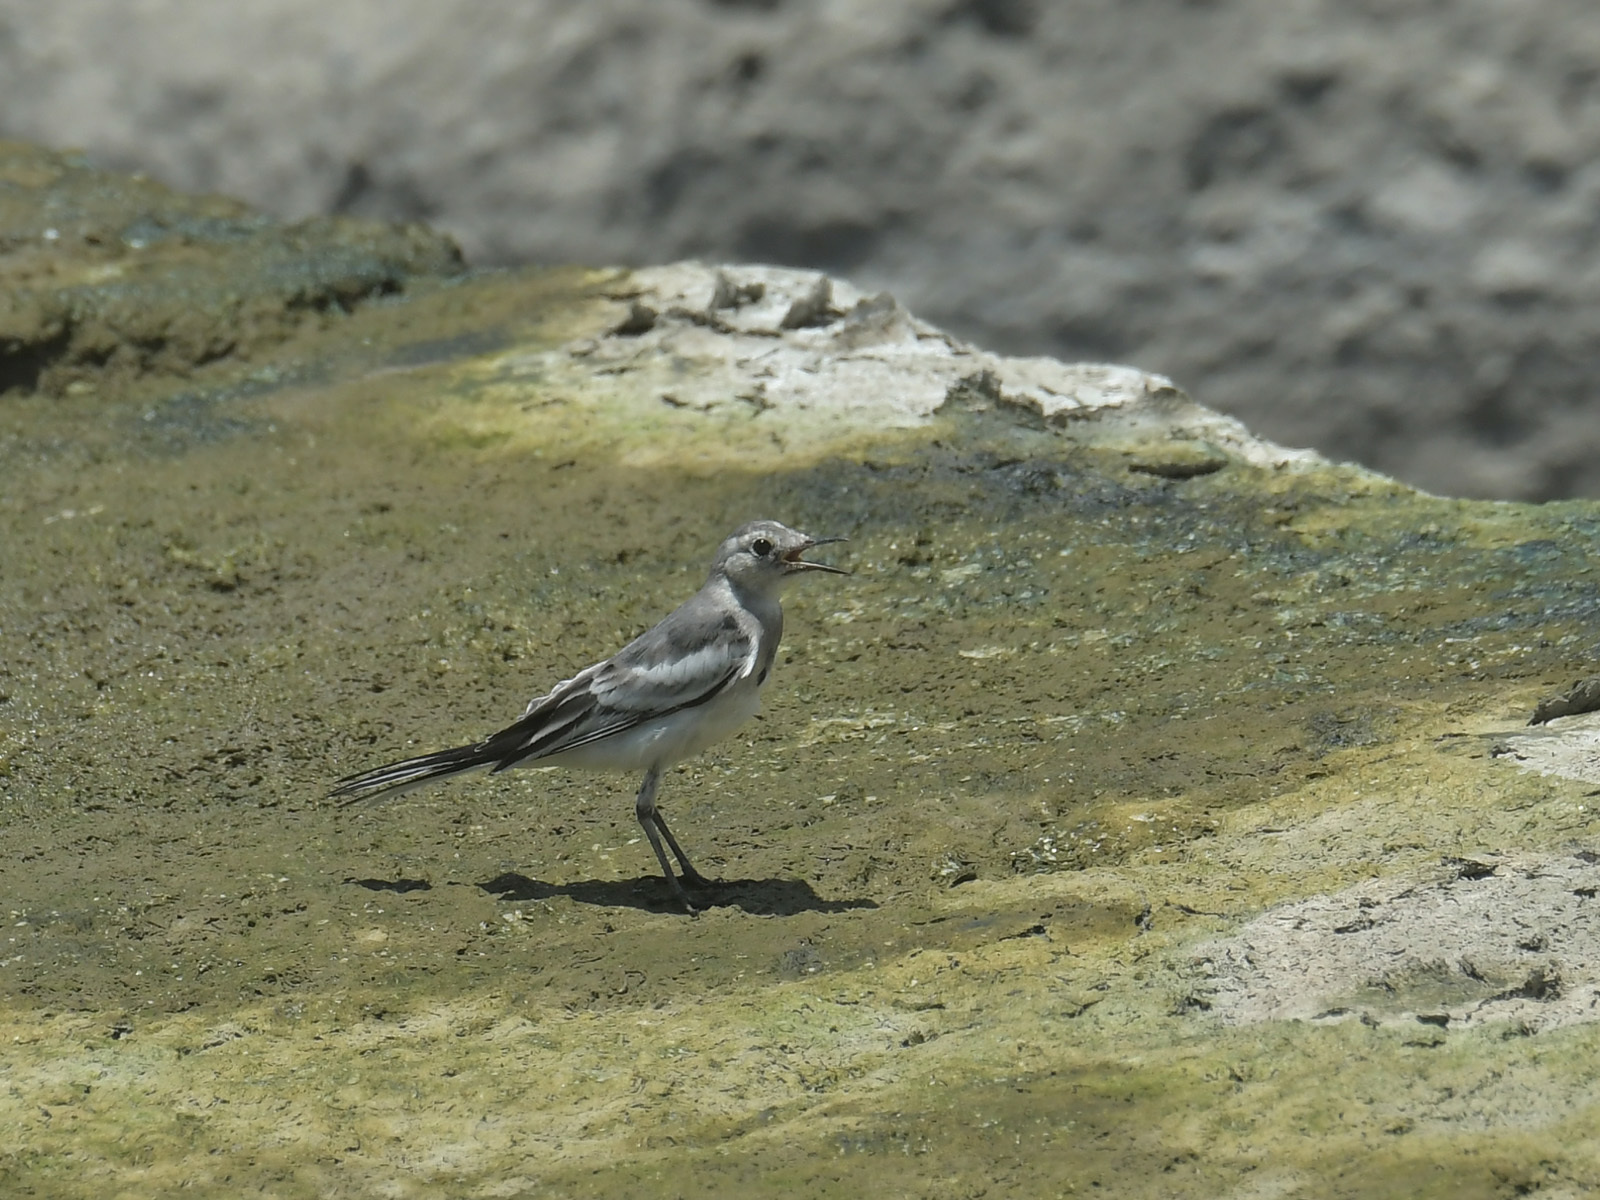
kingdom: Animalia
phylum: Chordata
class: Aves
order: Passeriformes
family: Motacillidae
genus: Motacilla
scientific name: Motacilla alba
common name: White wagtail
